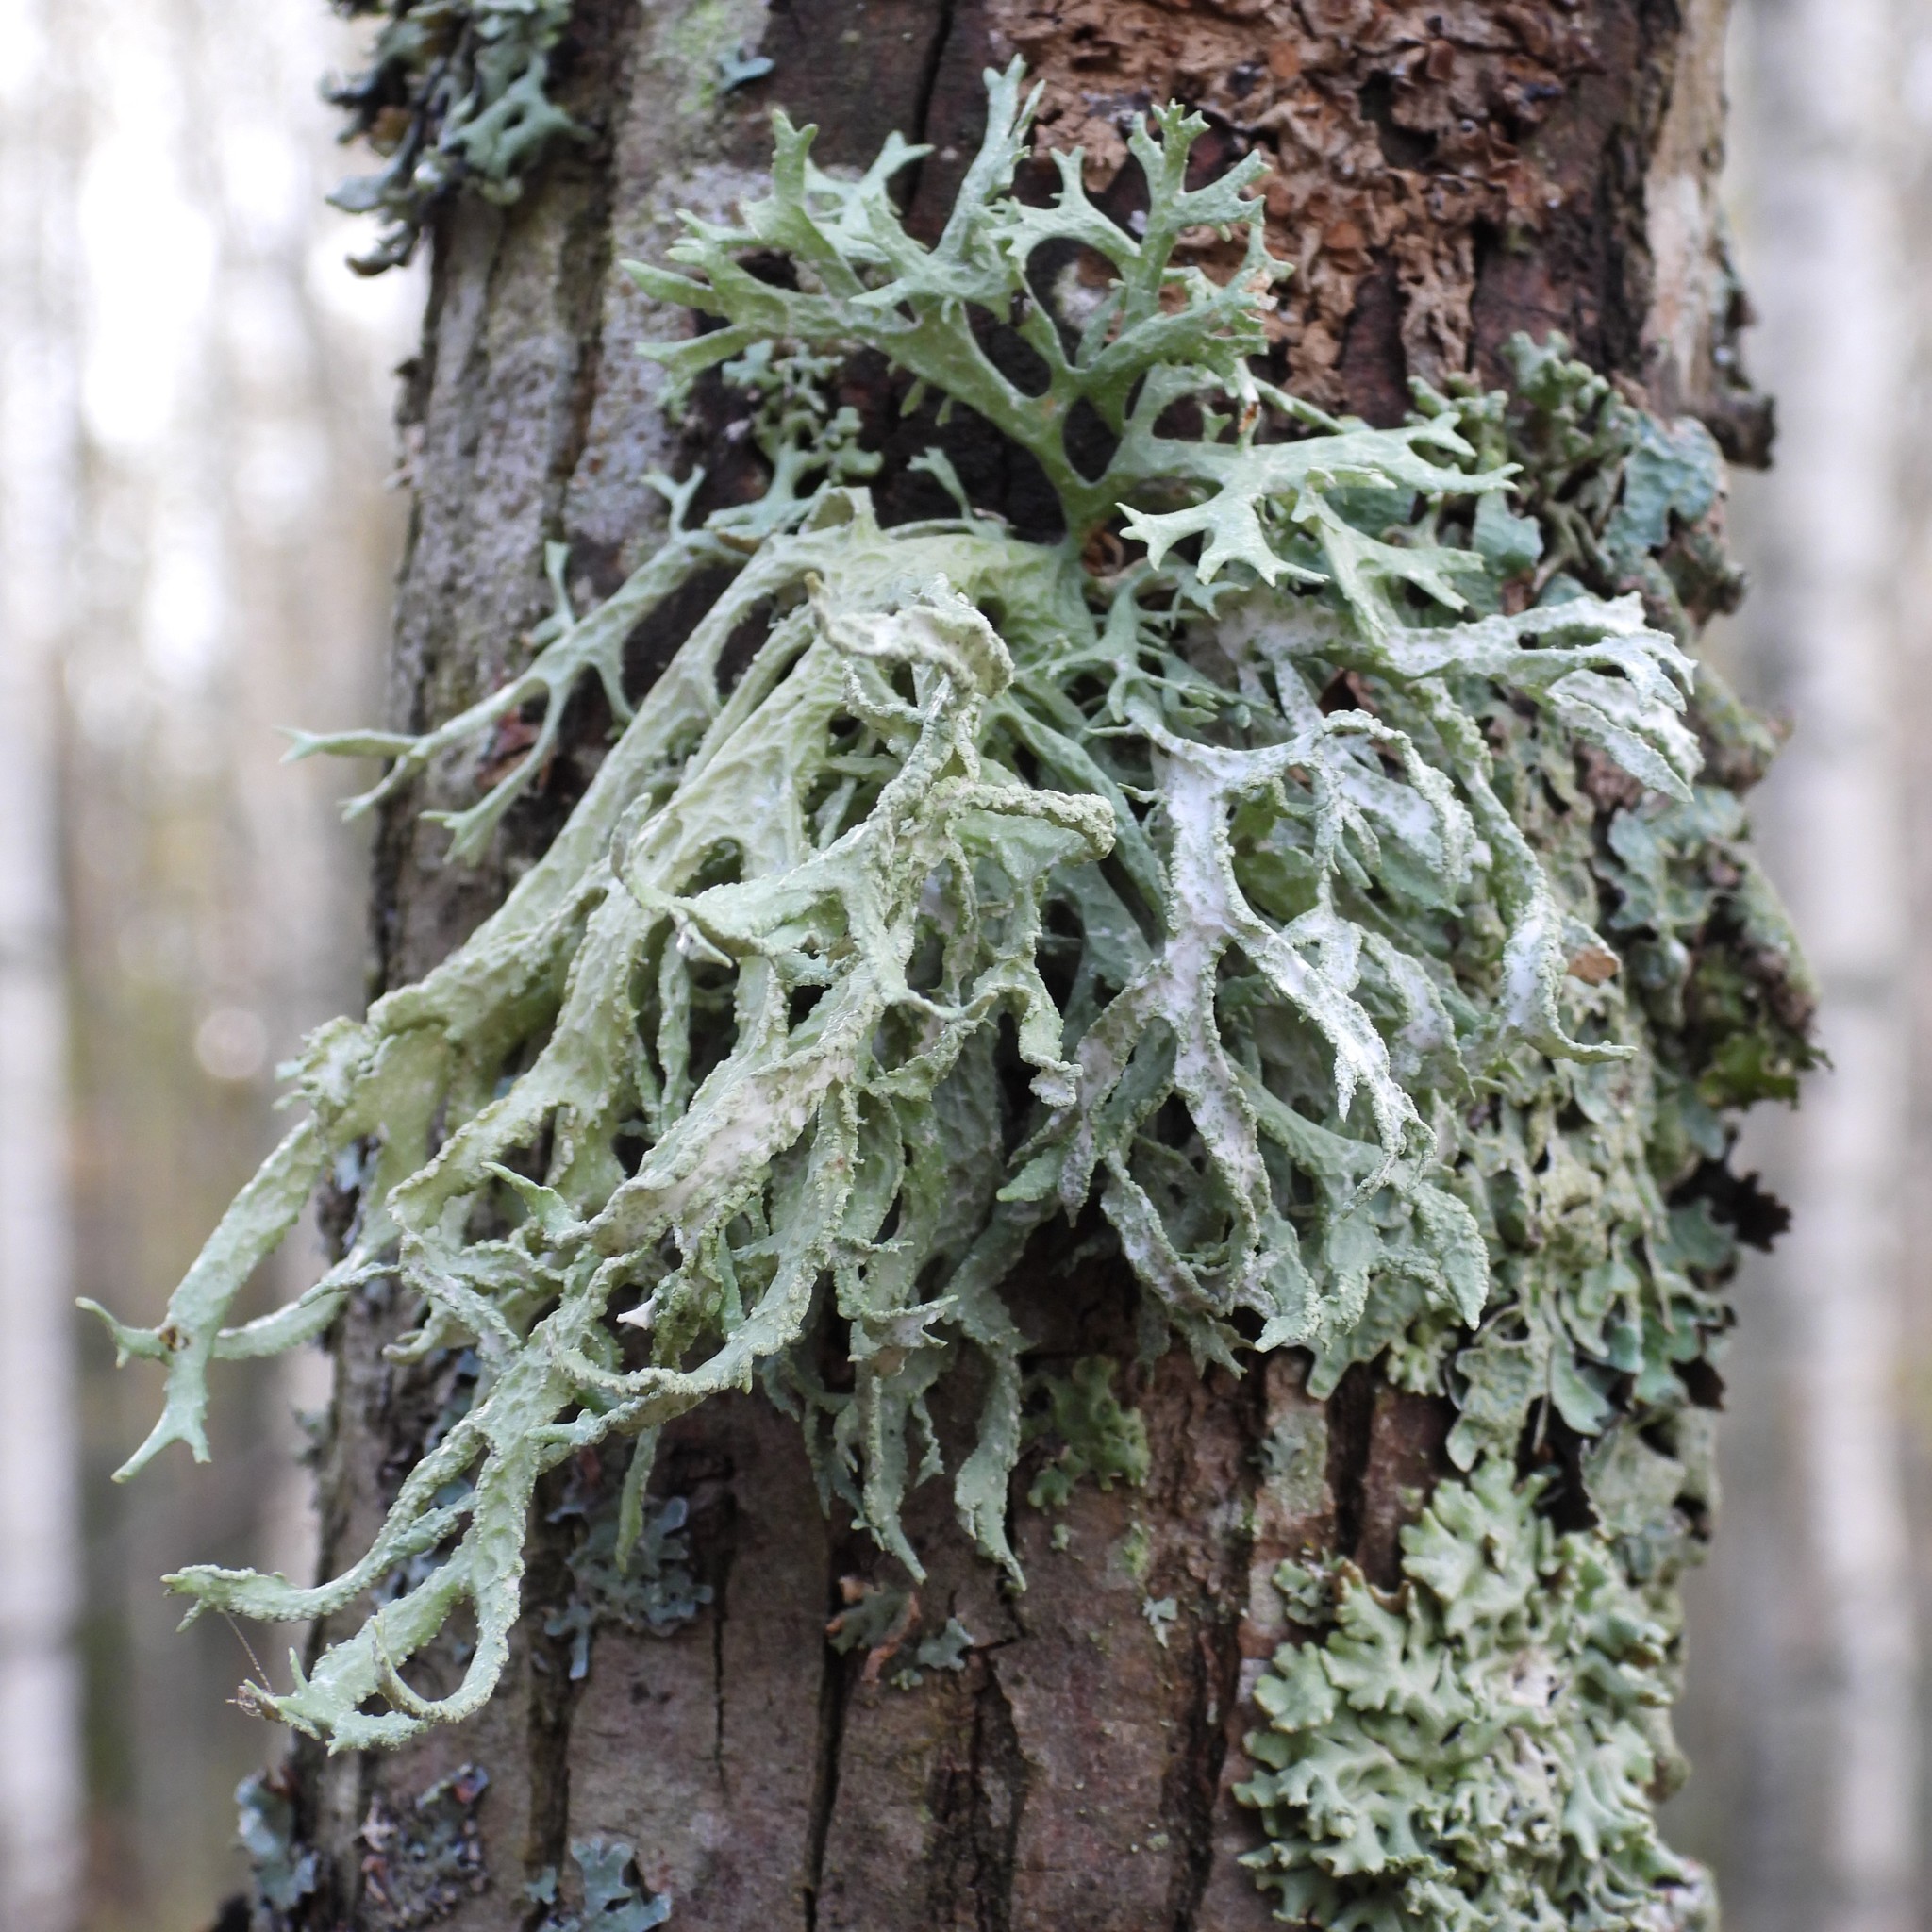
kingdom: Fungi
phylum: Ascomycota
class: Lecanoromycetes
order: Lecanorales
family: Parmeliaceae
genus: Evernia
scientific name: Evernia prunastri
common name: Oak moss
